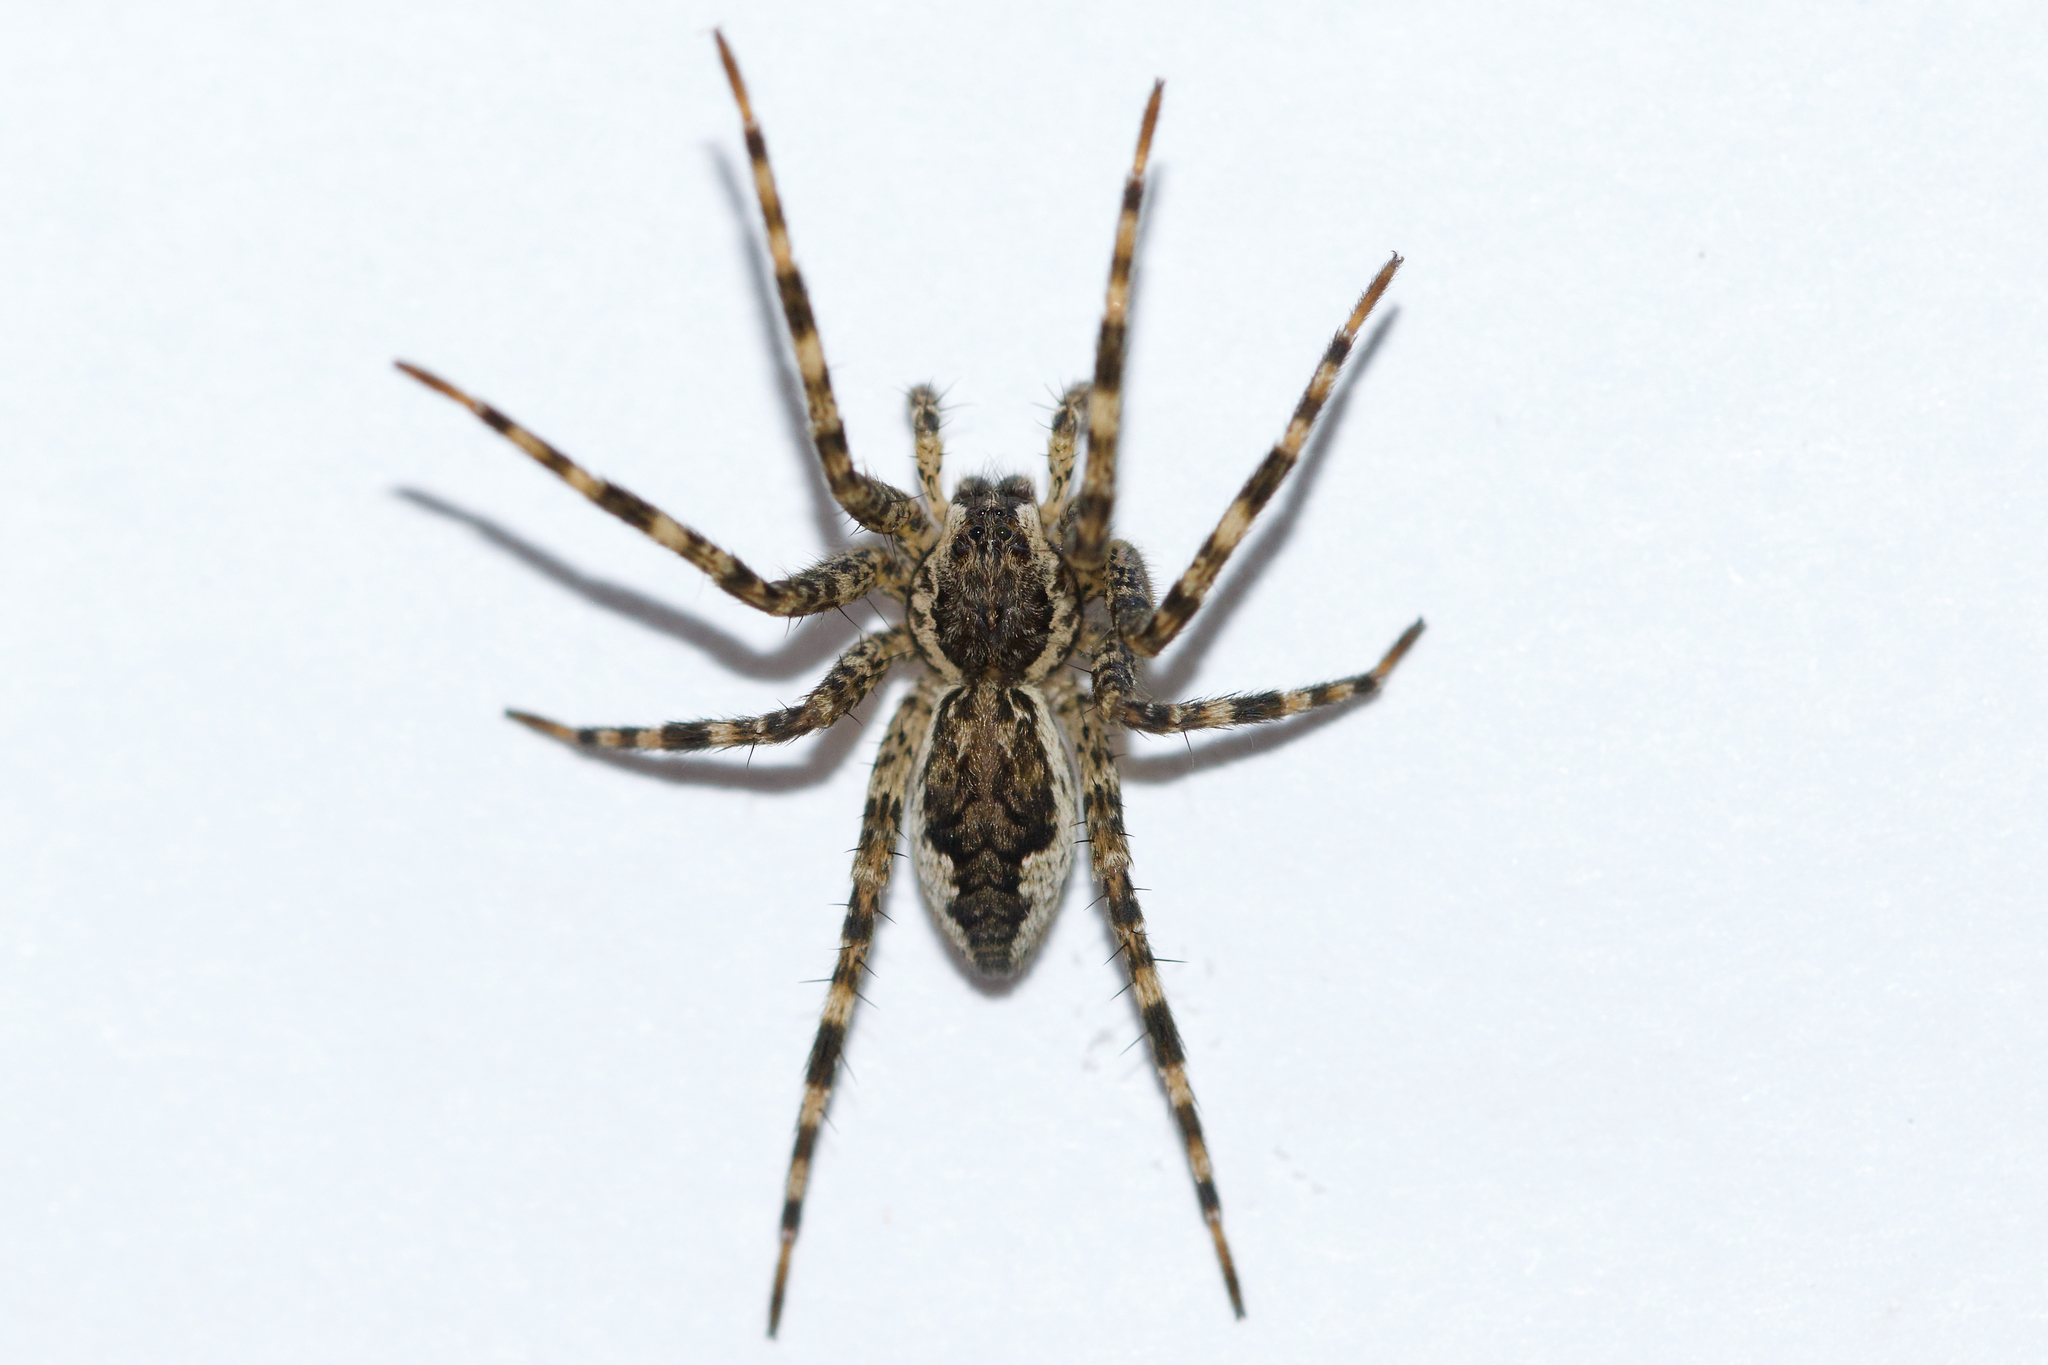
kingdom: Animalia
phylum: Arthropoda
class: Arachnida
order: Araneae
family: Pisauridae
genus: Dolomedes
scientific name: Dolomedes tenebrosus
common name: Dark fishing spider
